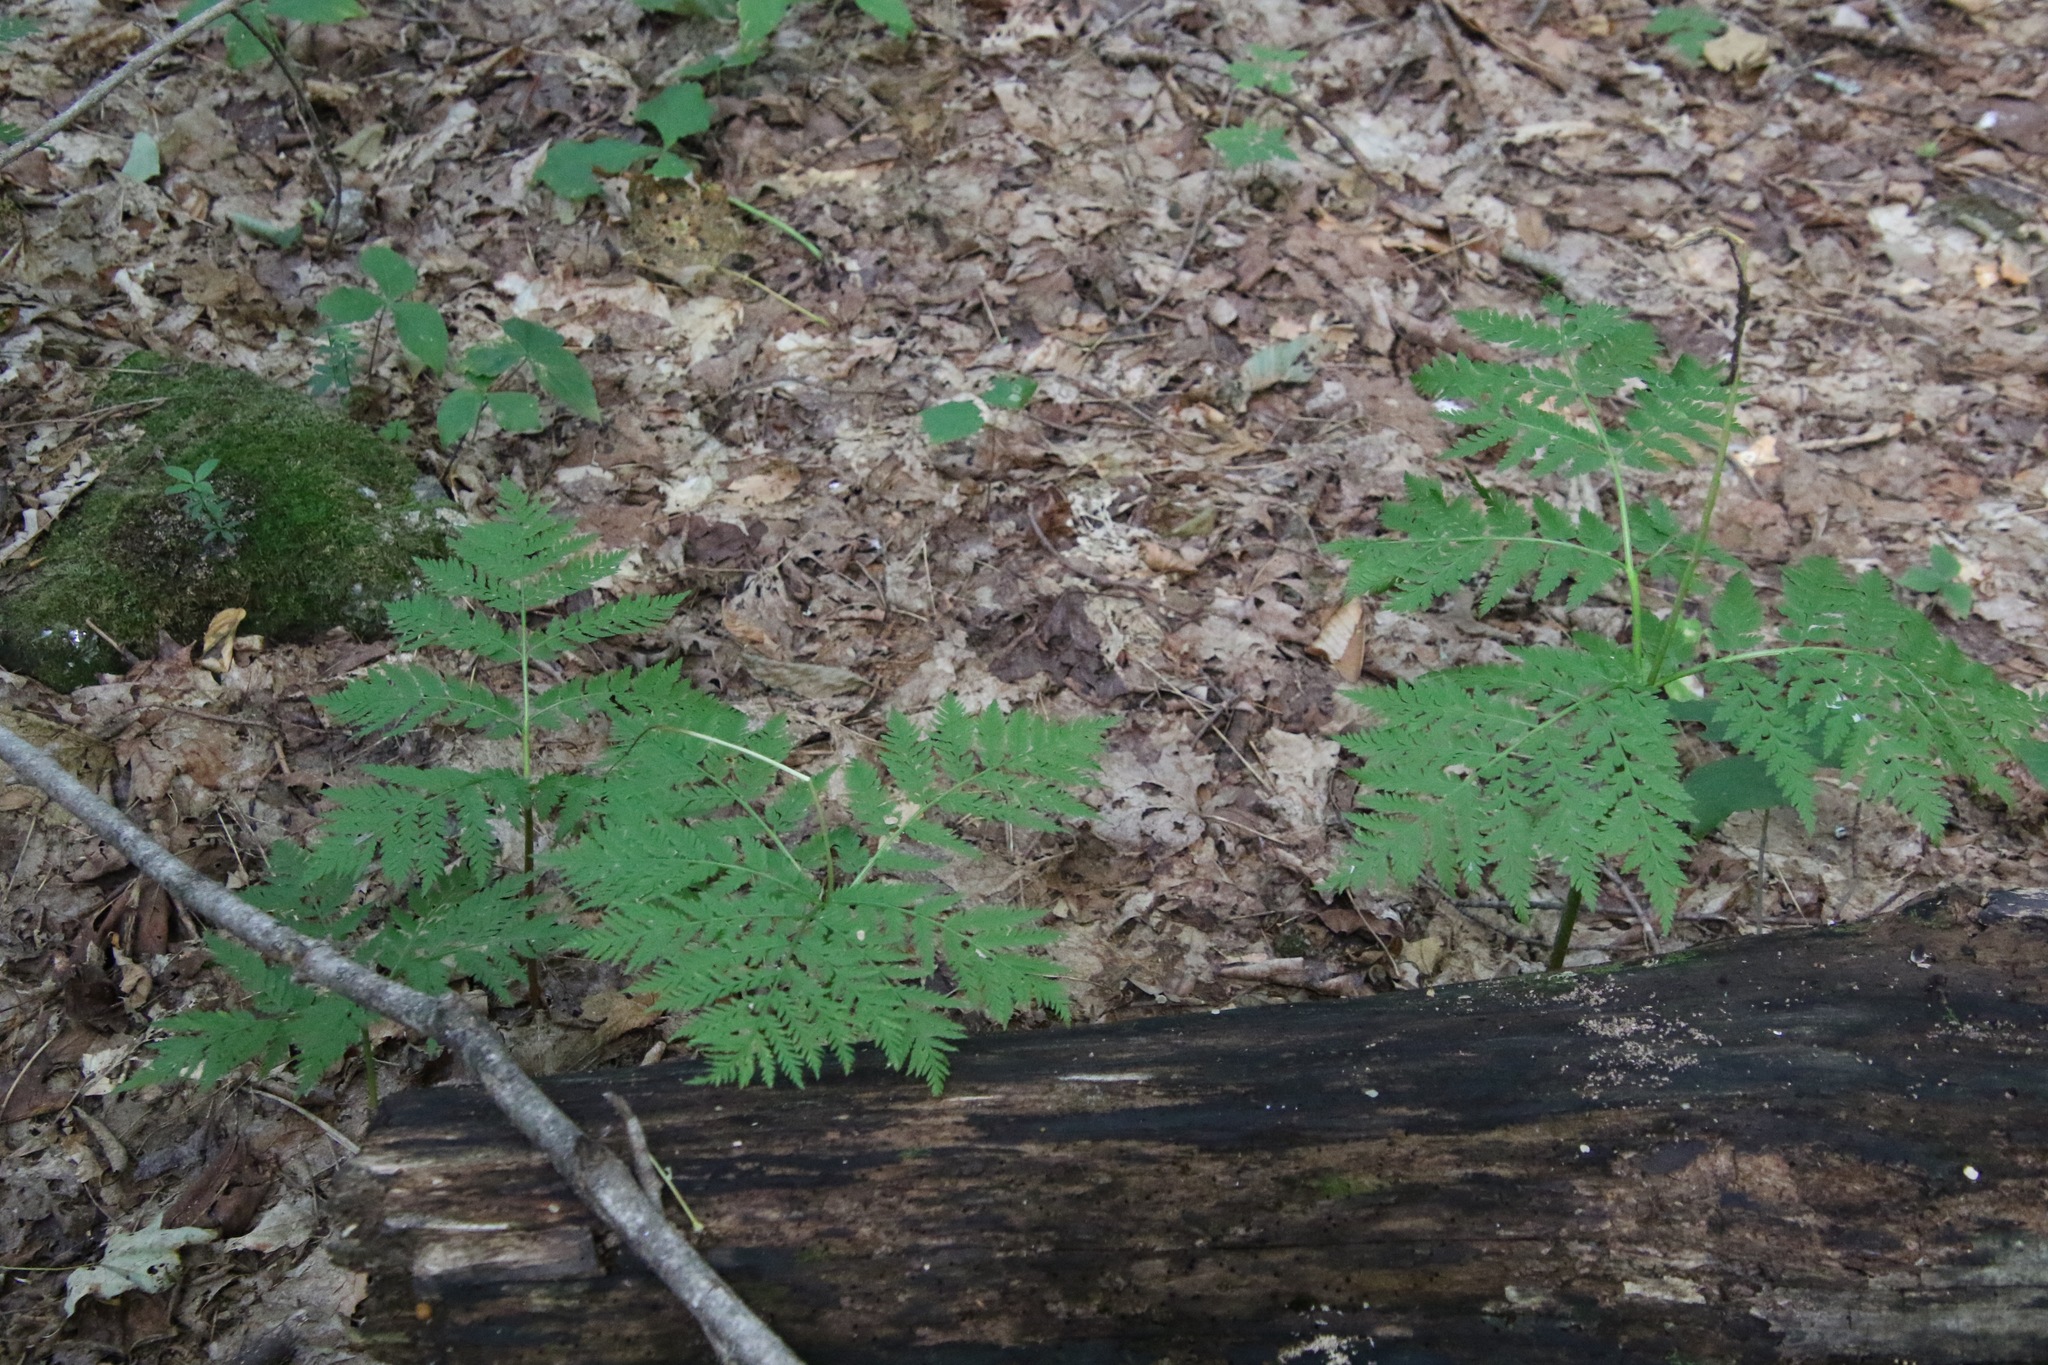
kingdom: Plantae
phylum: Tracheophyta
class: Polypodiopsida
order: Ophioglossales
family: Ophioglossaceae
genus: Botrypus
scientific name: Botrypus virginianus
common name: Common grapefern
